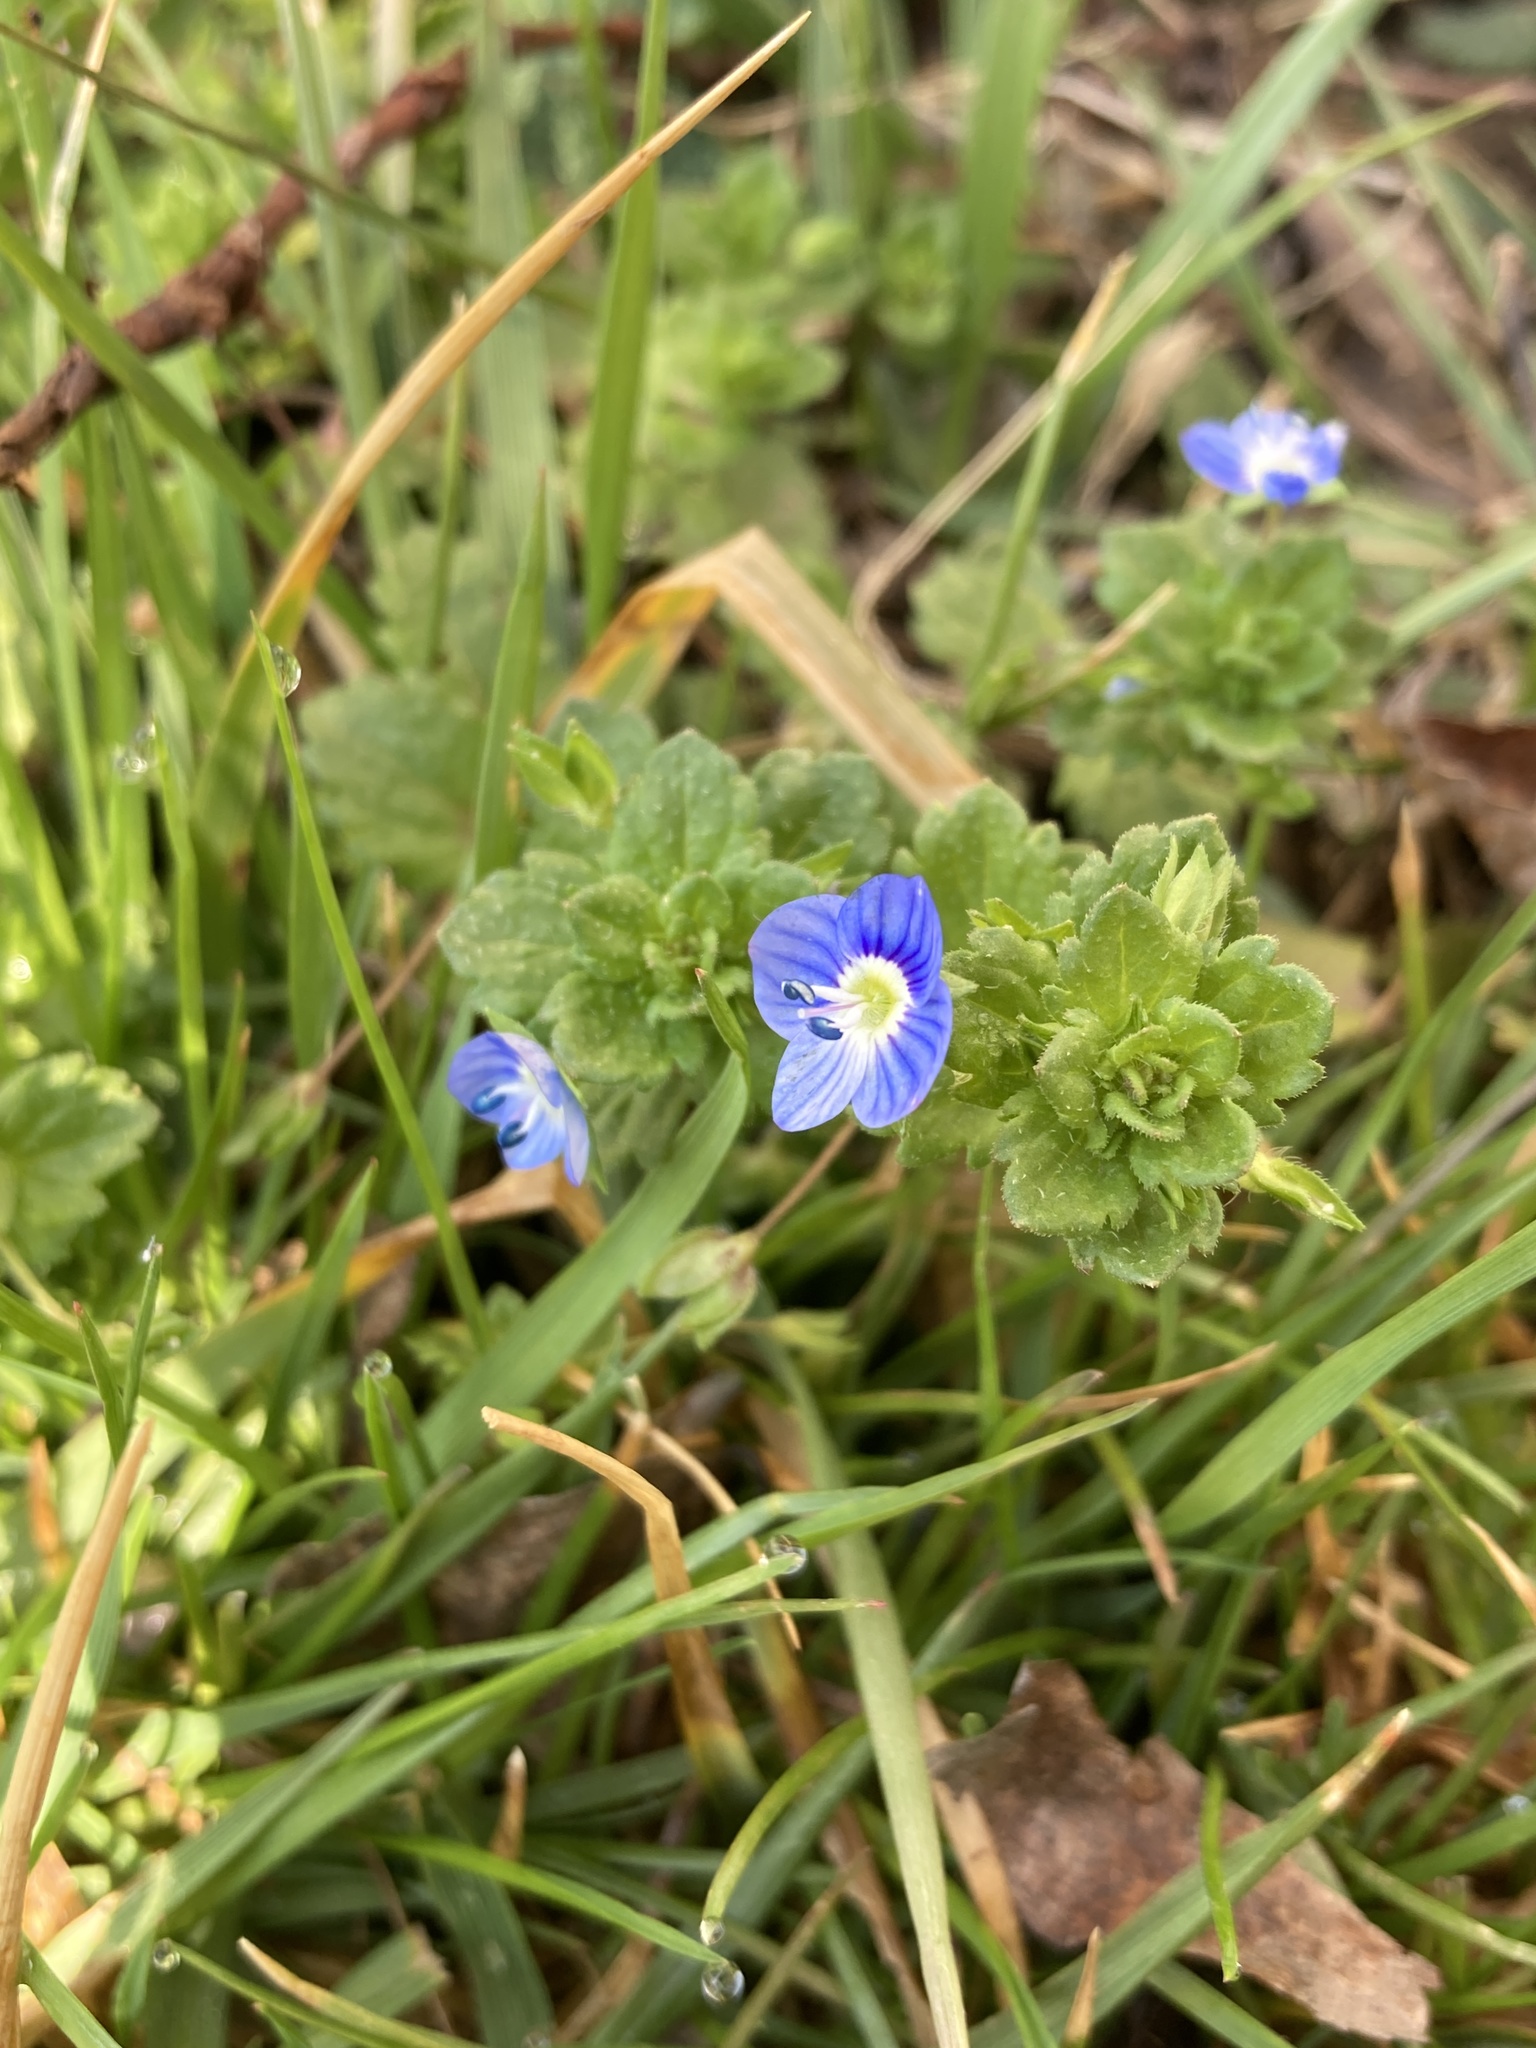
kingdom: Plantae
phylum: Tracheophyta
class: Magnoliopsida
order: Lamiales
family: Plantaginaceae
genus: Veronica
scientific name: Veronica persica
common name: Common field-speedwell
